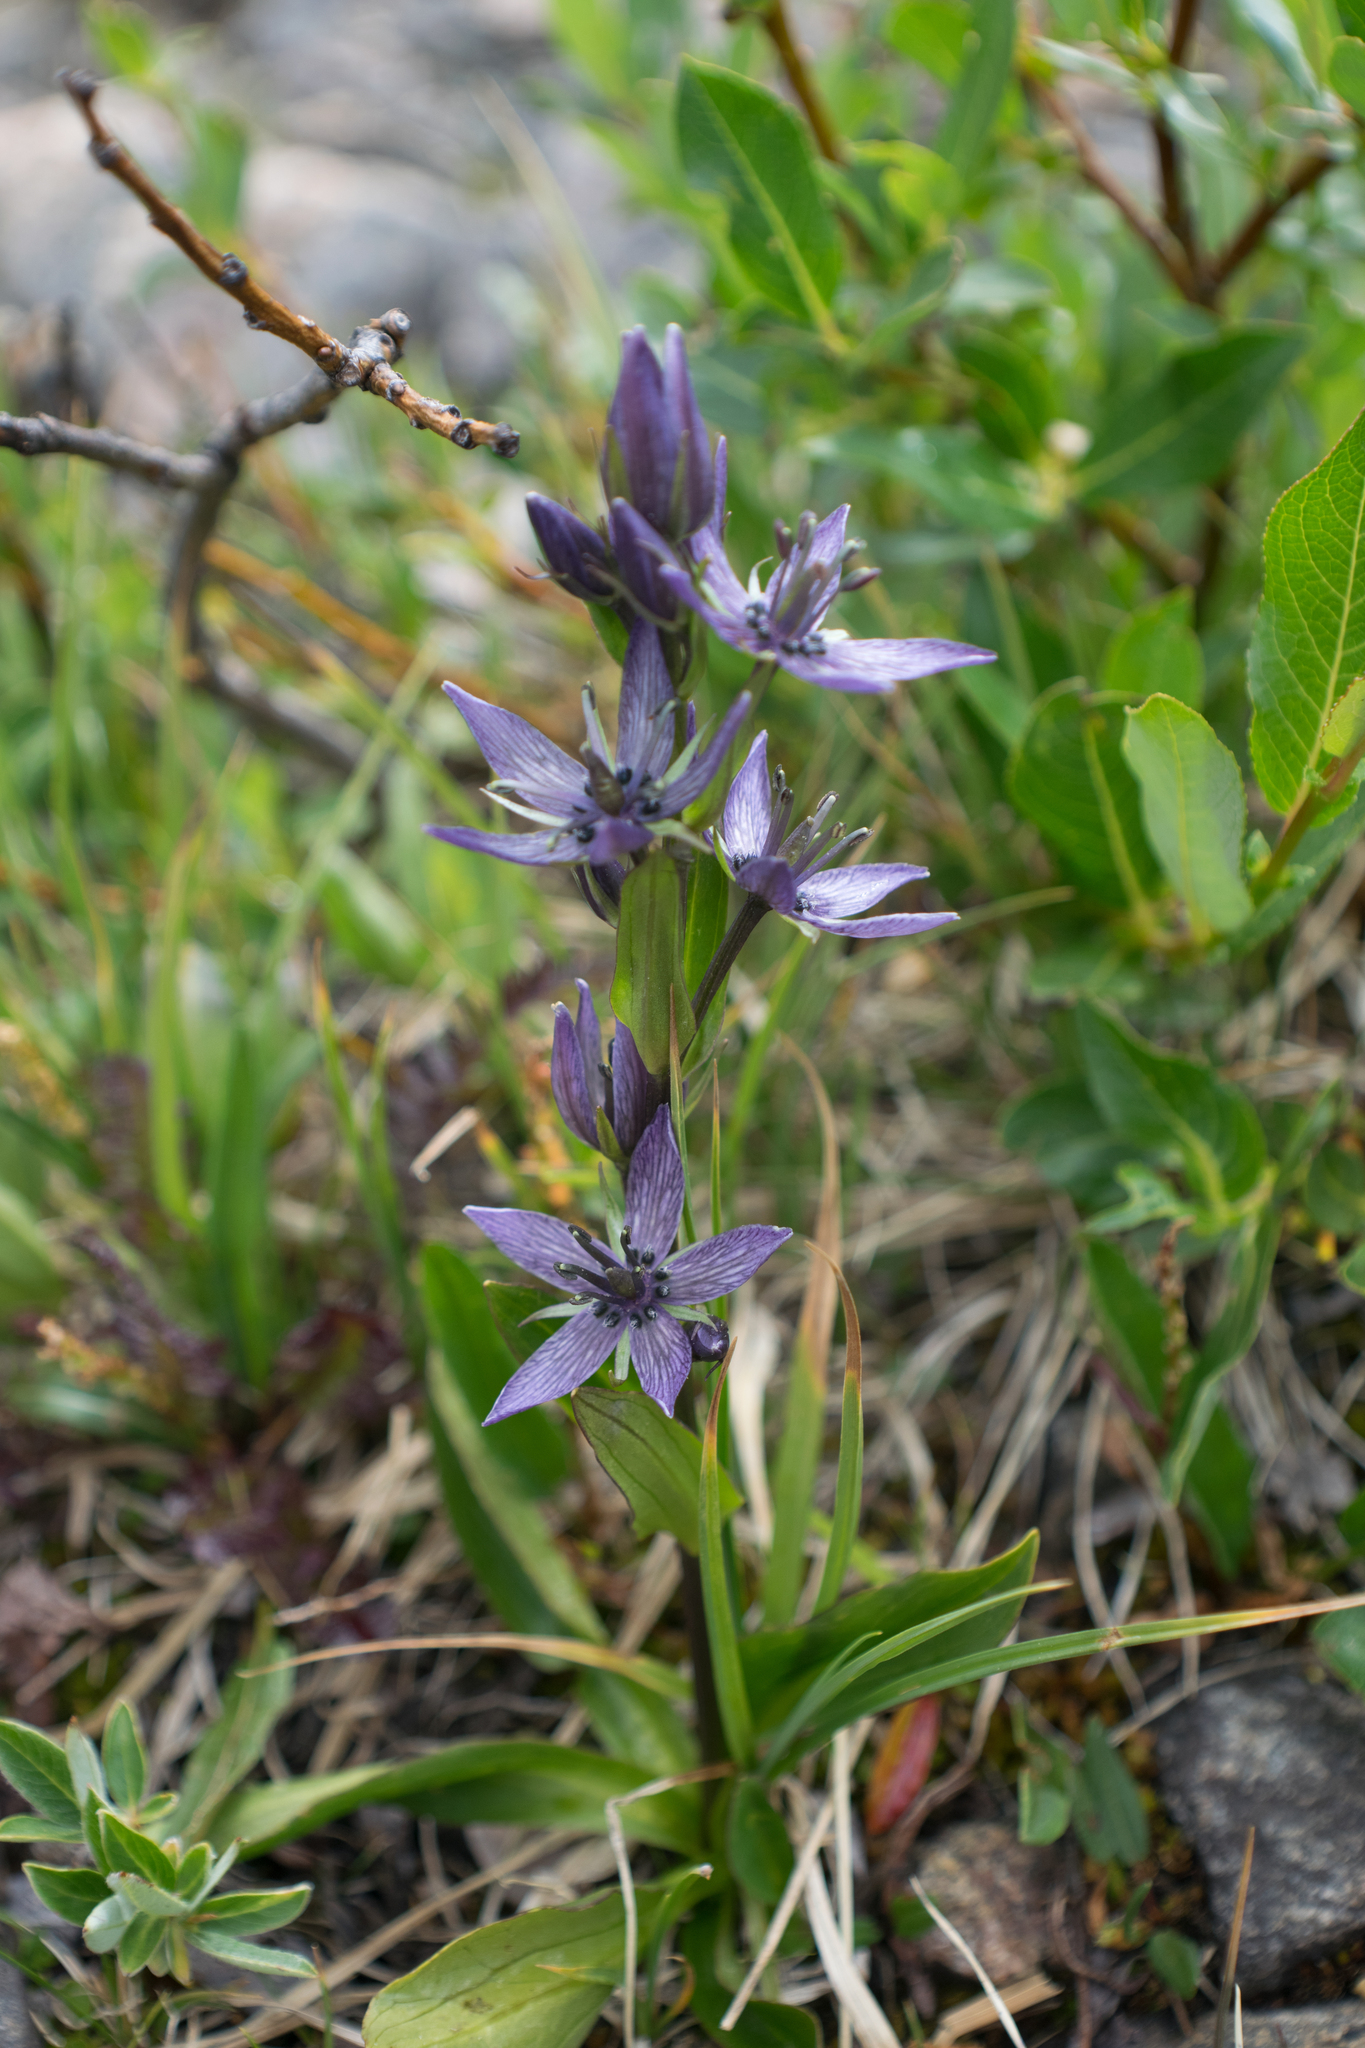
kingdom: Plantae
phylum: Tracheophyta
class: Magnoliopsida
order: Gentianales
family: Gentianaceae
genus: Swertia
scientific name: Swertia perennis
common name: Alpine bog swertia
